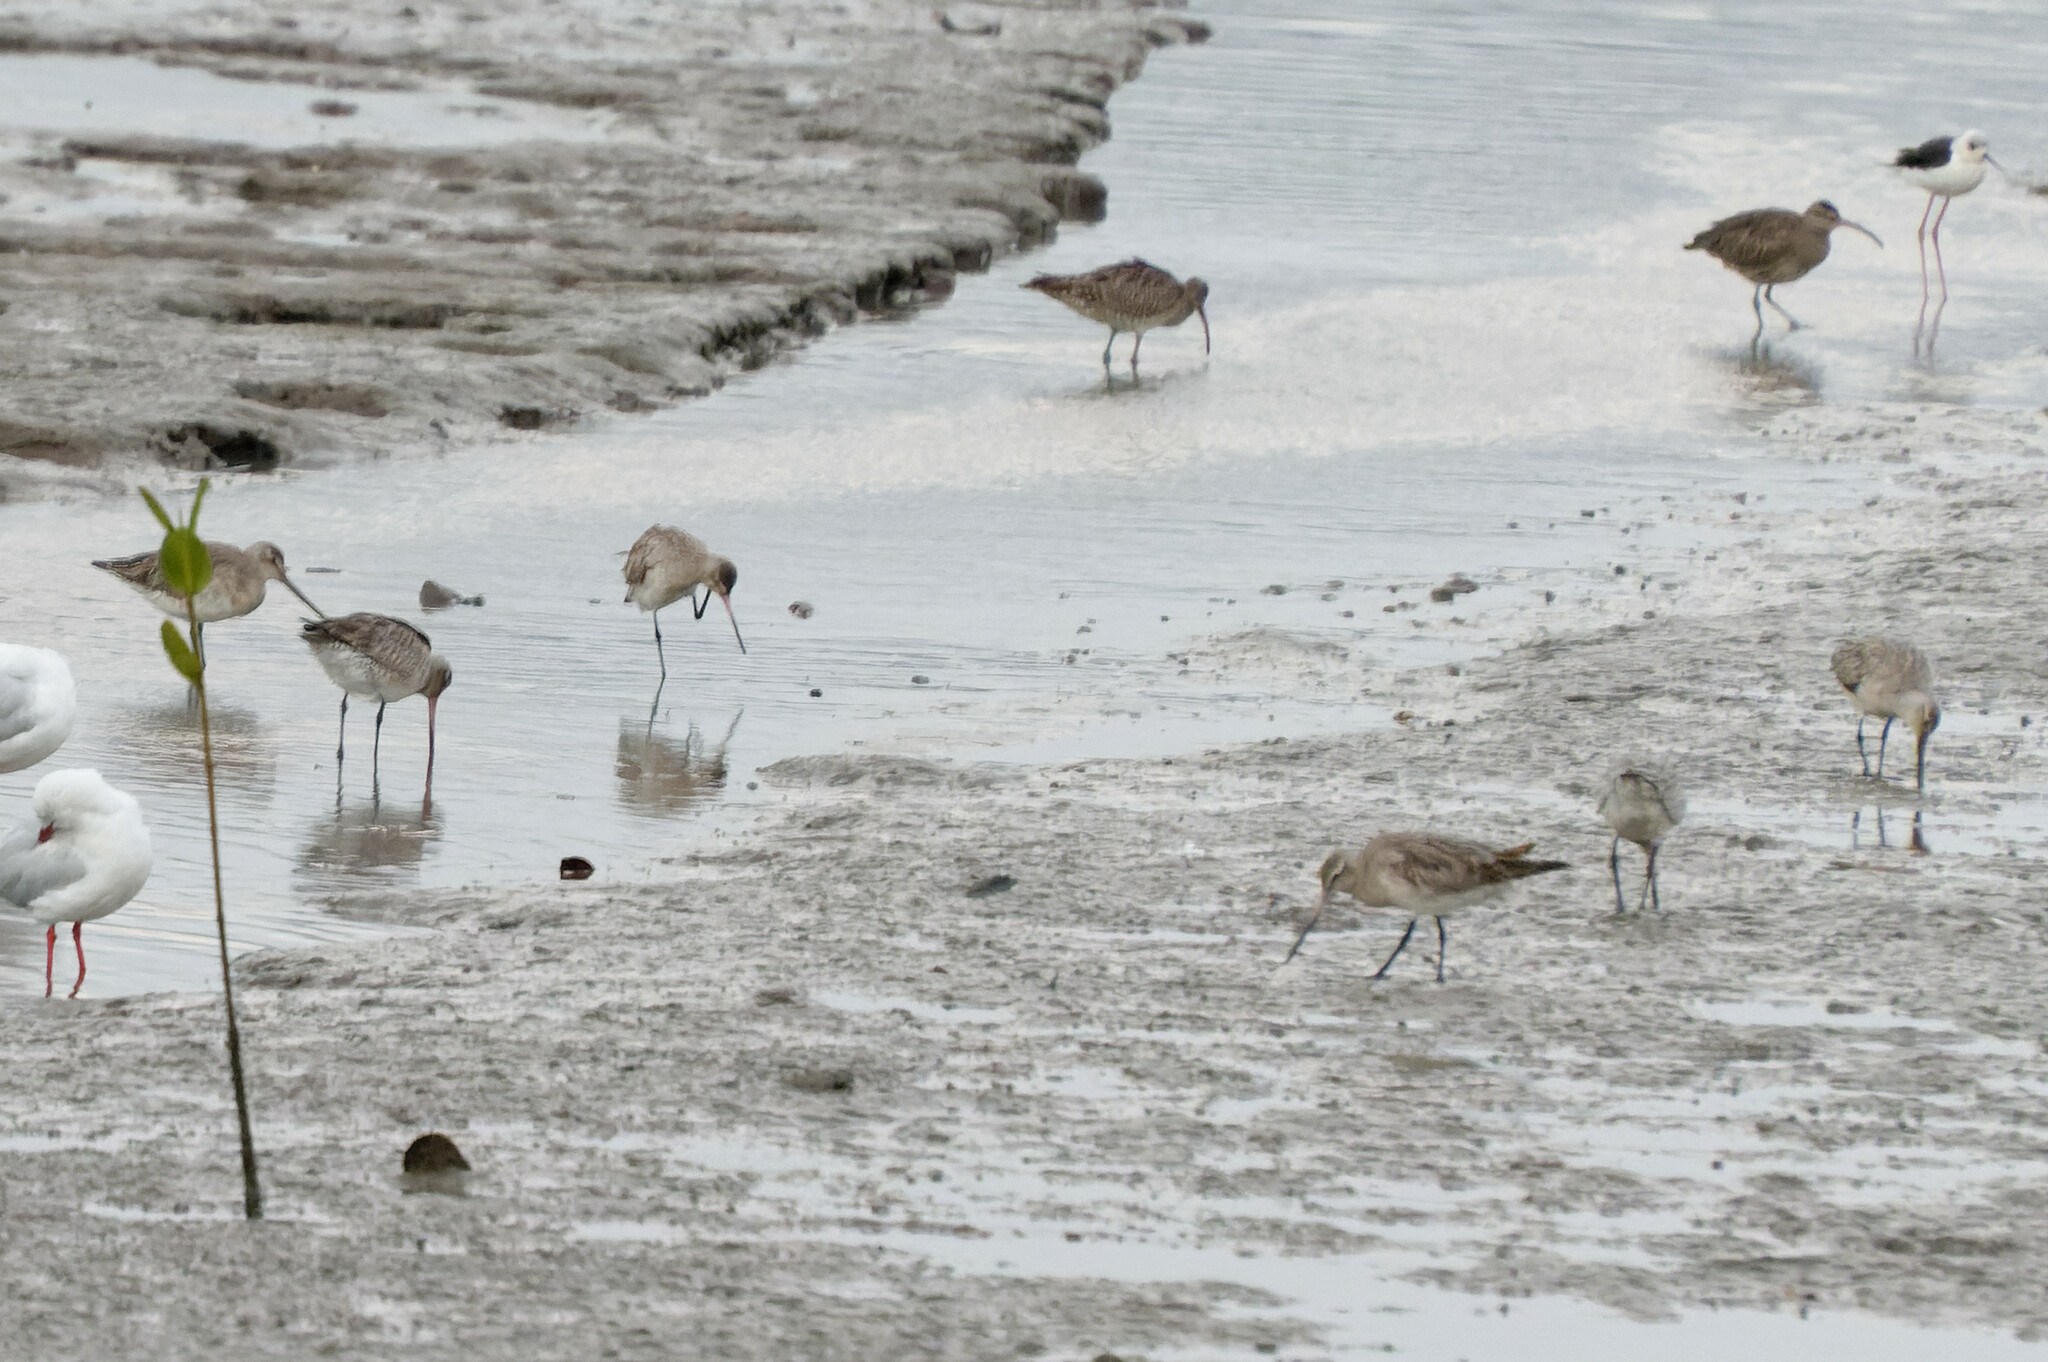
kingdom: Animalia
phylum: Chordata
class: Aves
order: Charadriiformes
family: Scolopacidae
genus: Limosa
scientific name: Limosa lapponica
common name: Bar-tailed godwit
